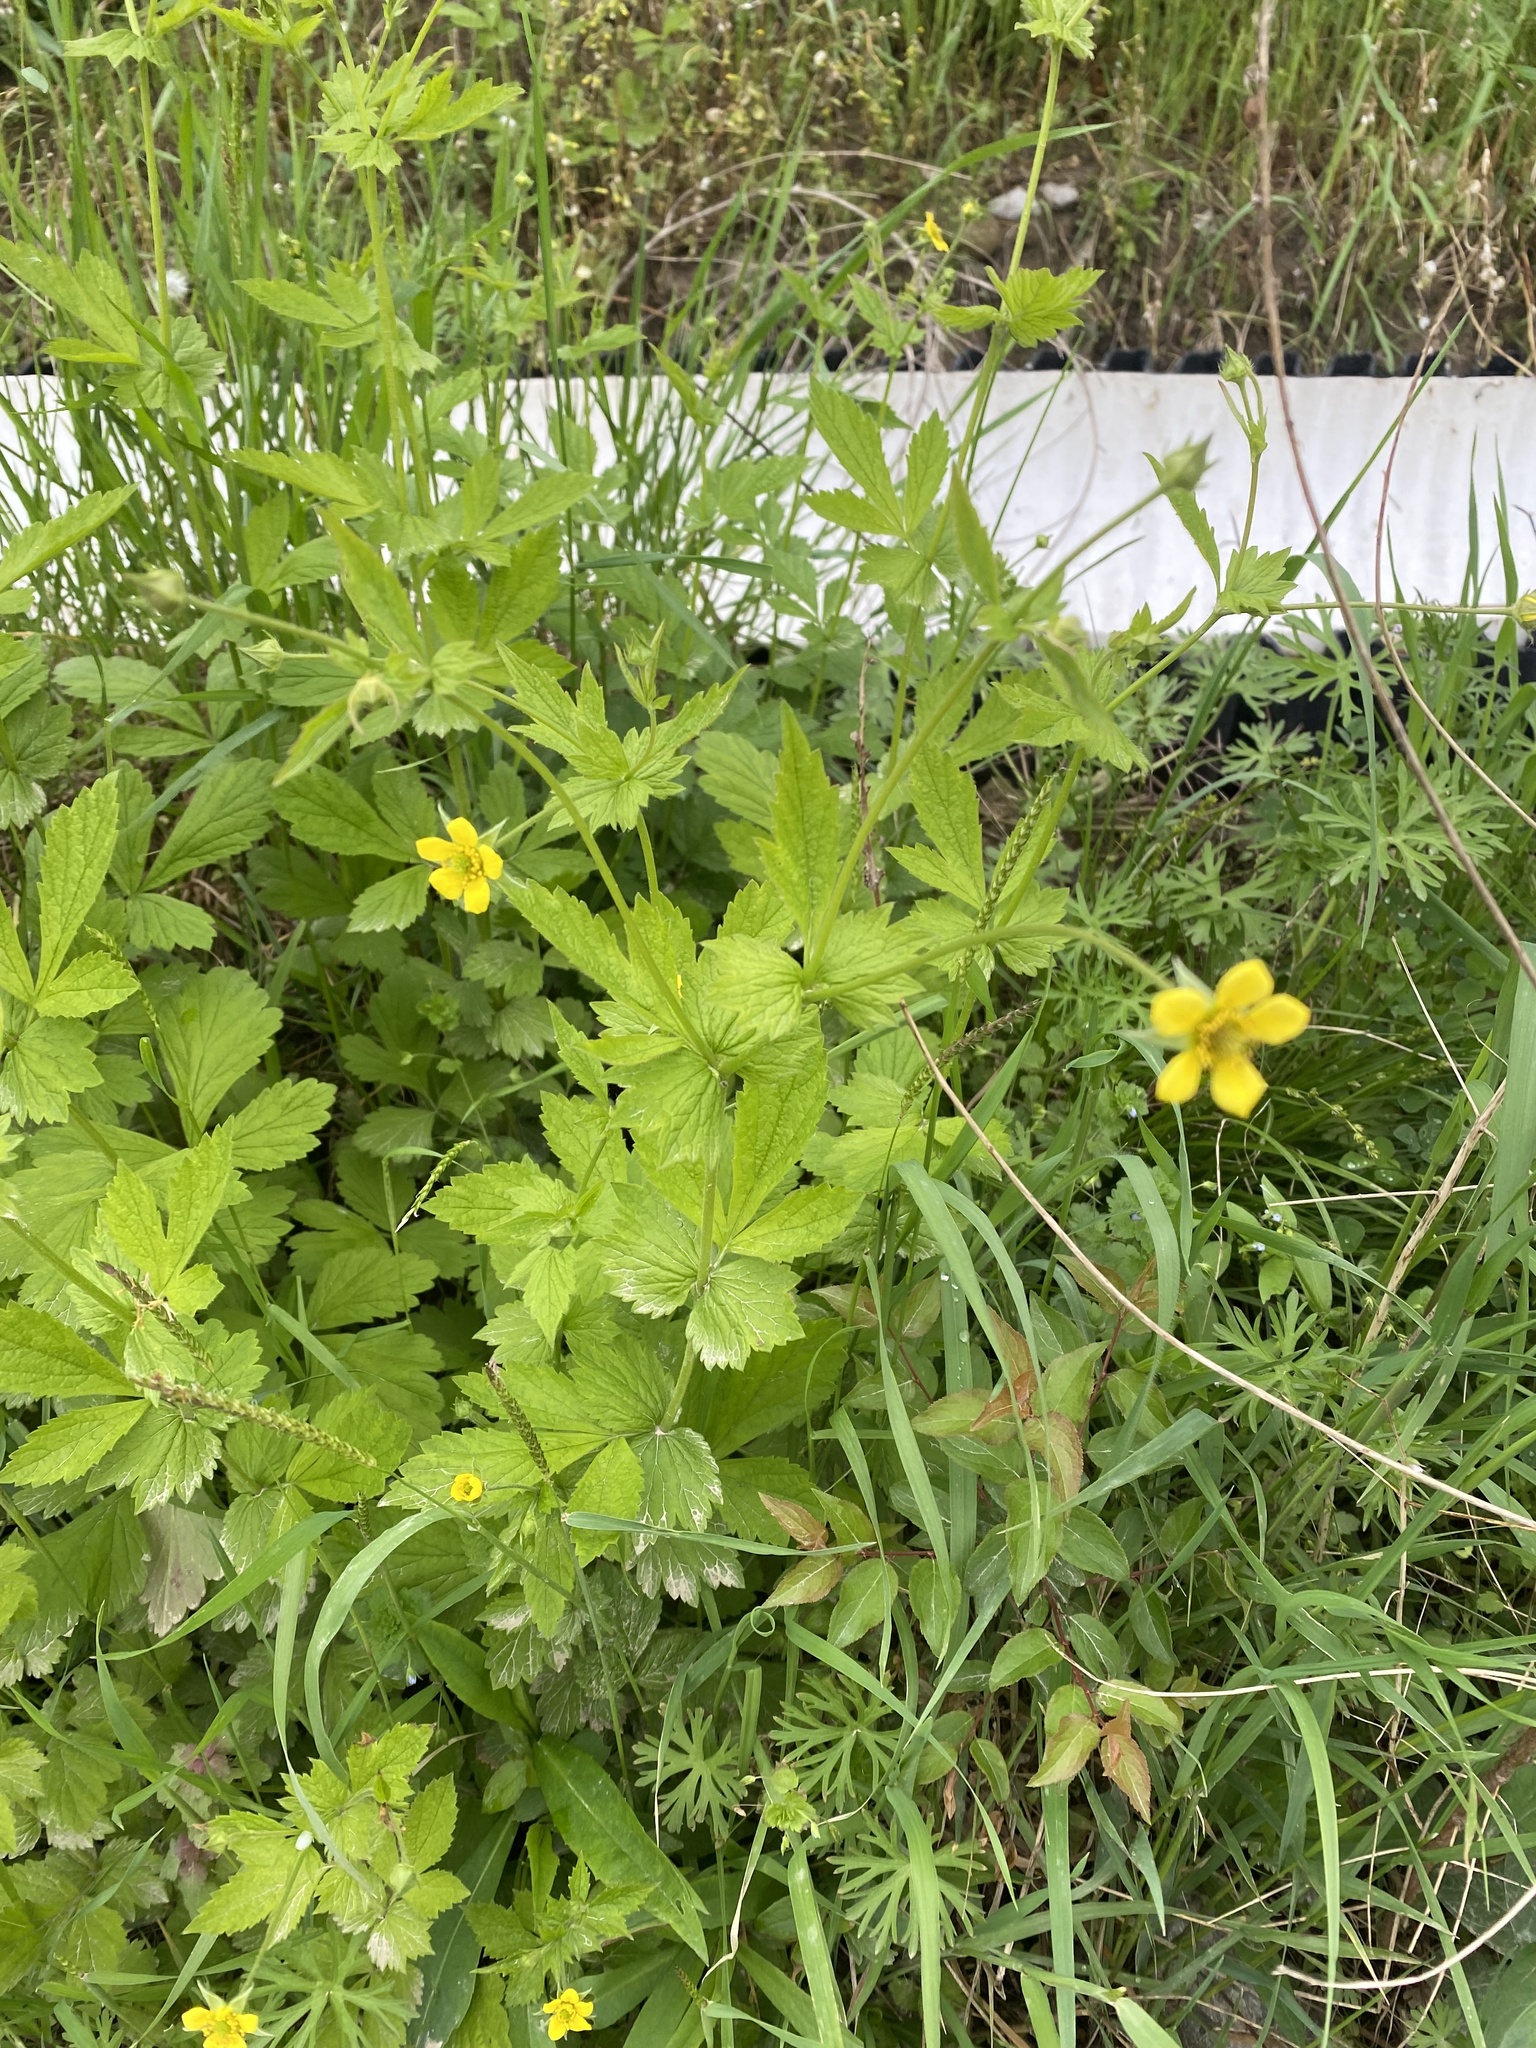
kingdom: Plantae
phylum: Tracheophyta
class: Magnoliopsida
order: Rosales
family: Rosaceae
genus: Geum
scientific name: Geum urbanum
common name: Wood avens
